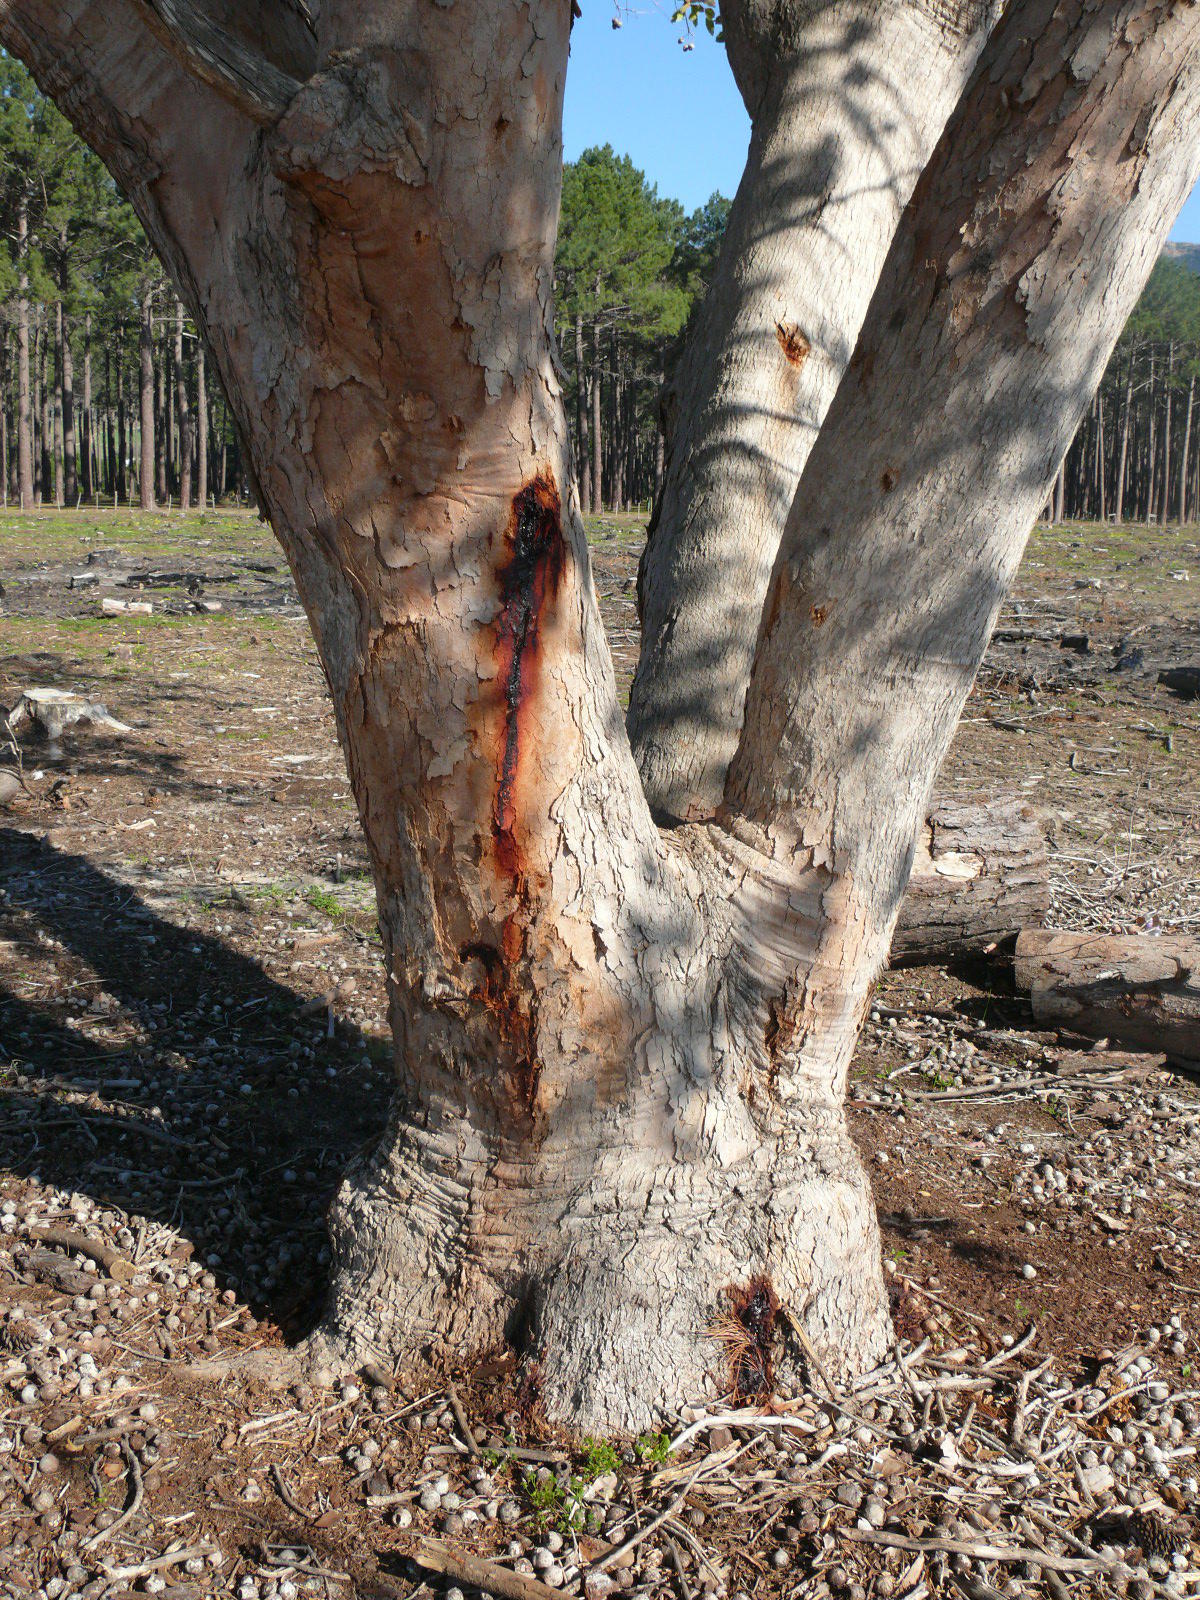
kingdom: Plantae
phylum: Tracheophyta
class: Magnoliopsida
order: Myrtales
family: Myrtaceae
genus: Corymbia
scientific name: Corymbia ficifolia
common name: Redflower gum
